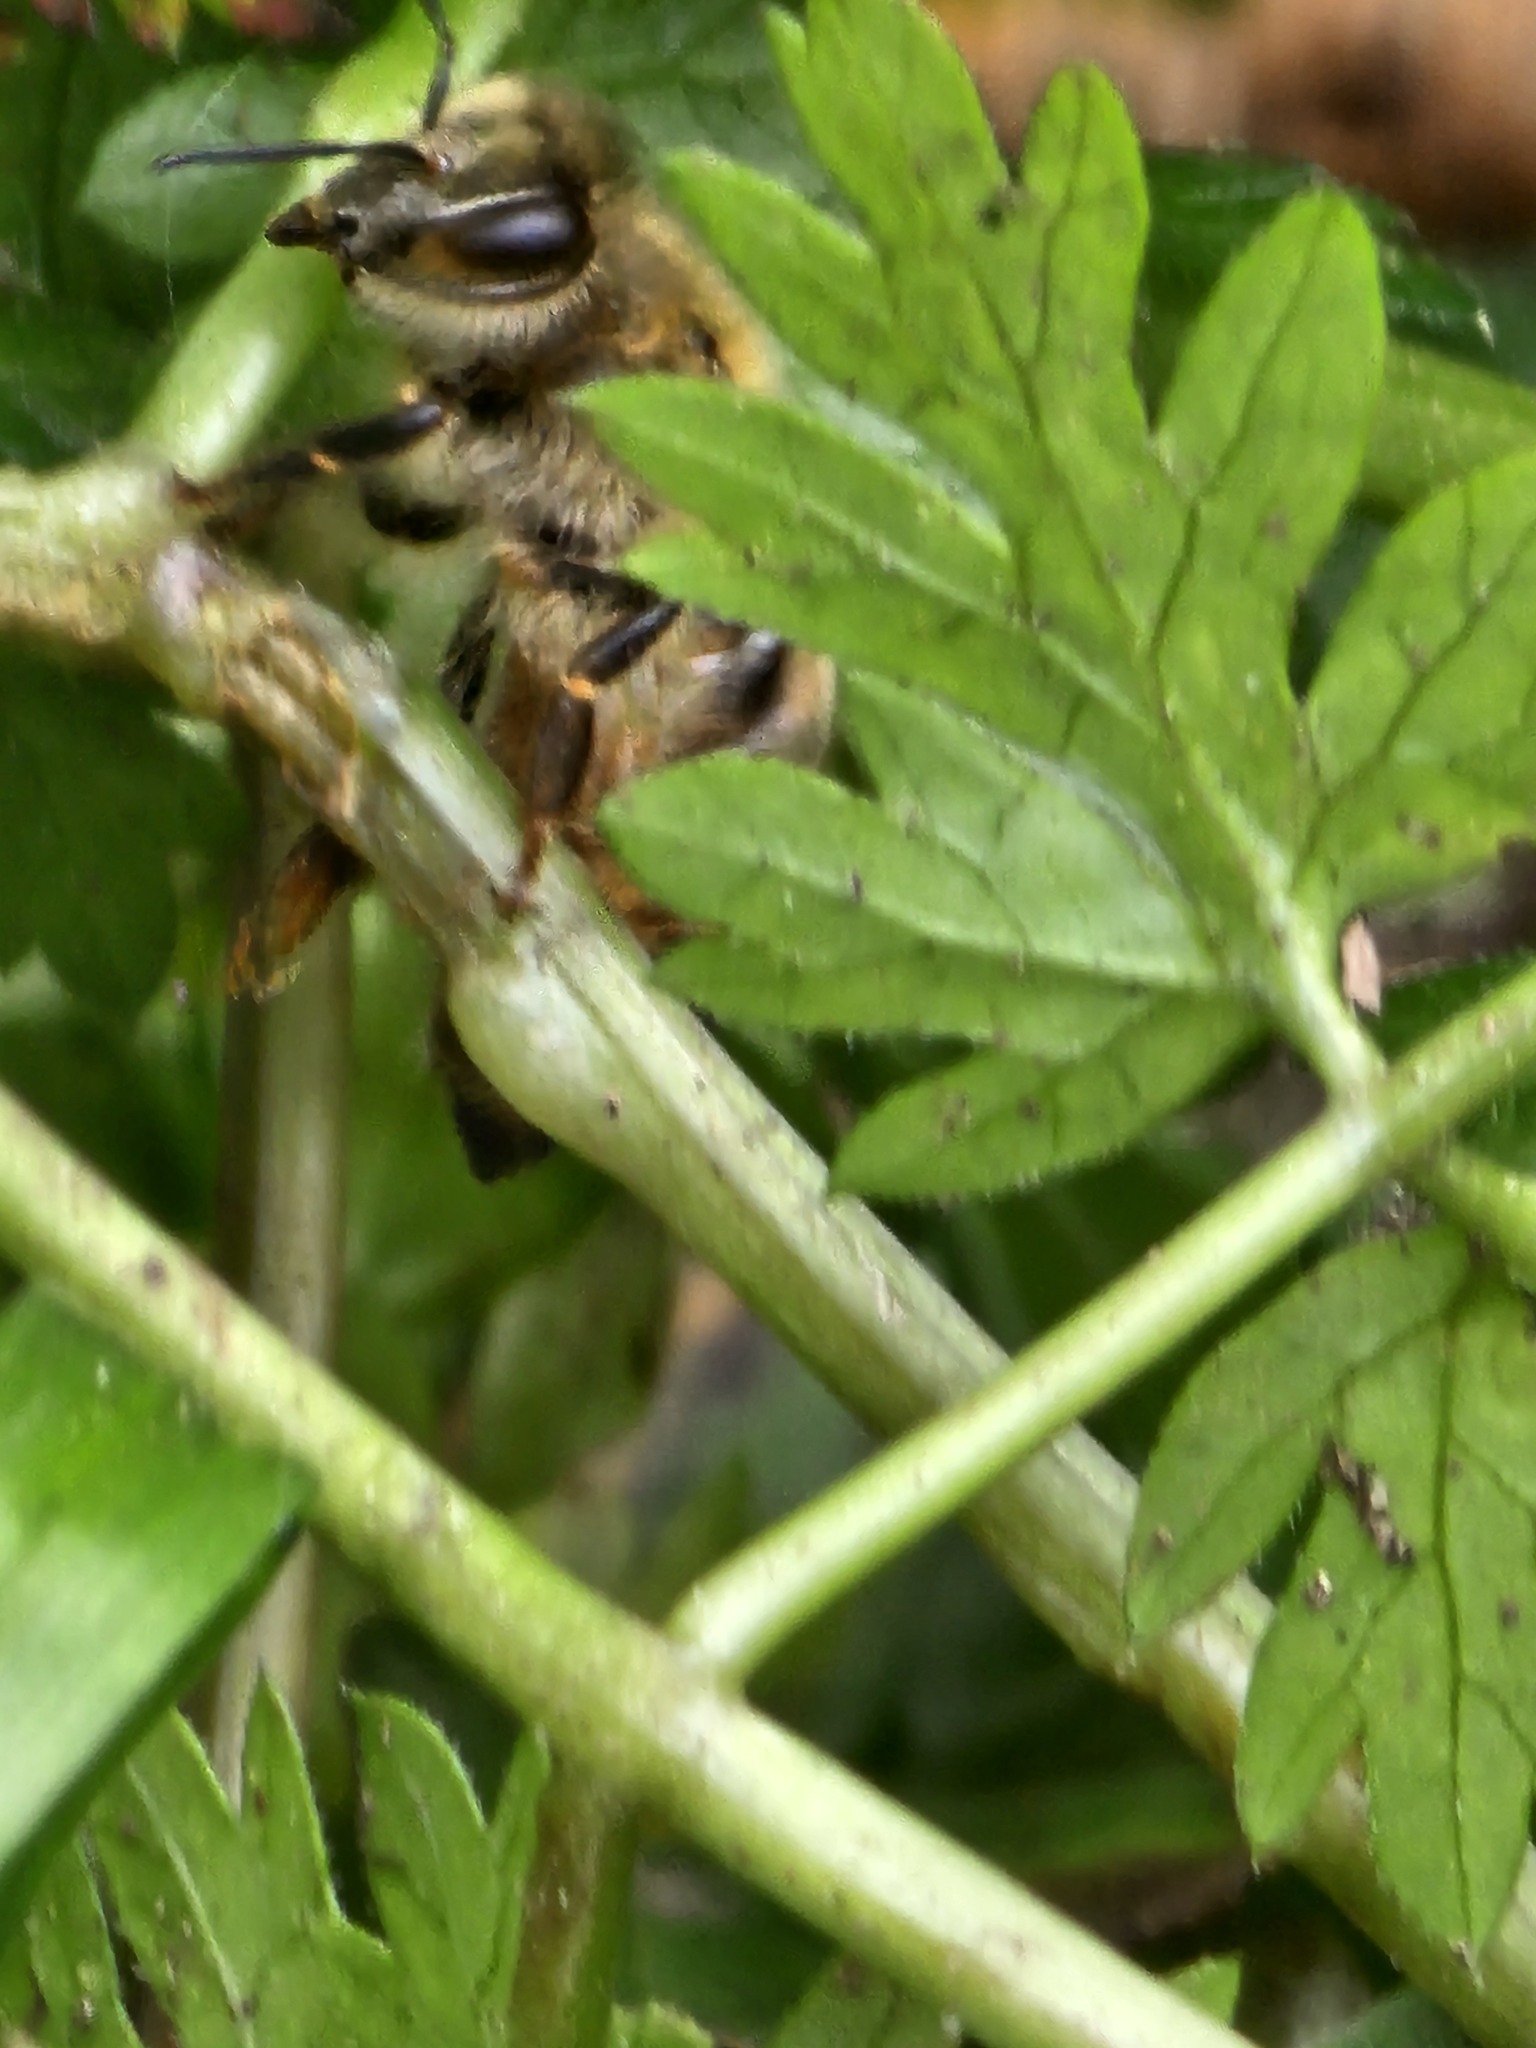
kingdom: Animalia
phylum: Arthropoda
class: Insecta
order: Hymenoptera
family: Apidae
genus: Apis
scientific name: Apis mellifera
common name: Honey bee
